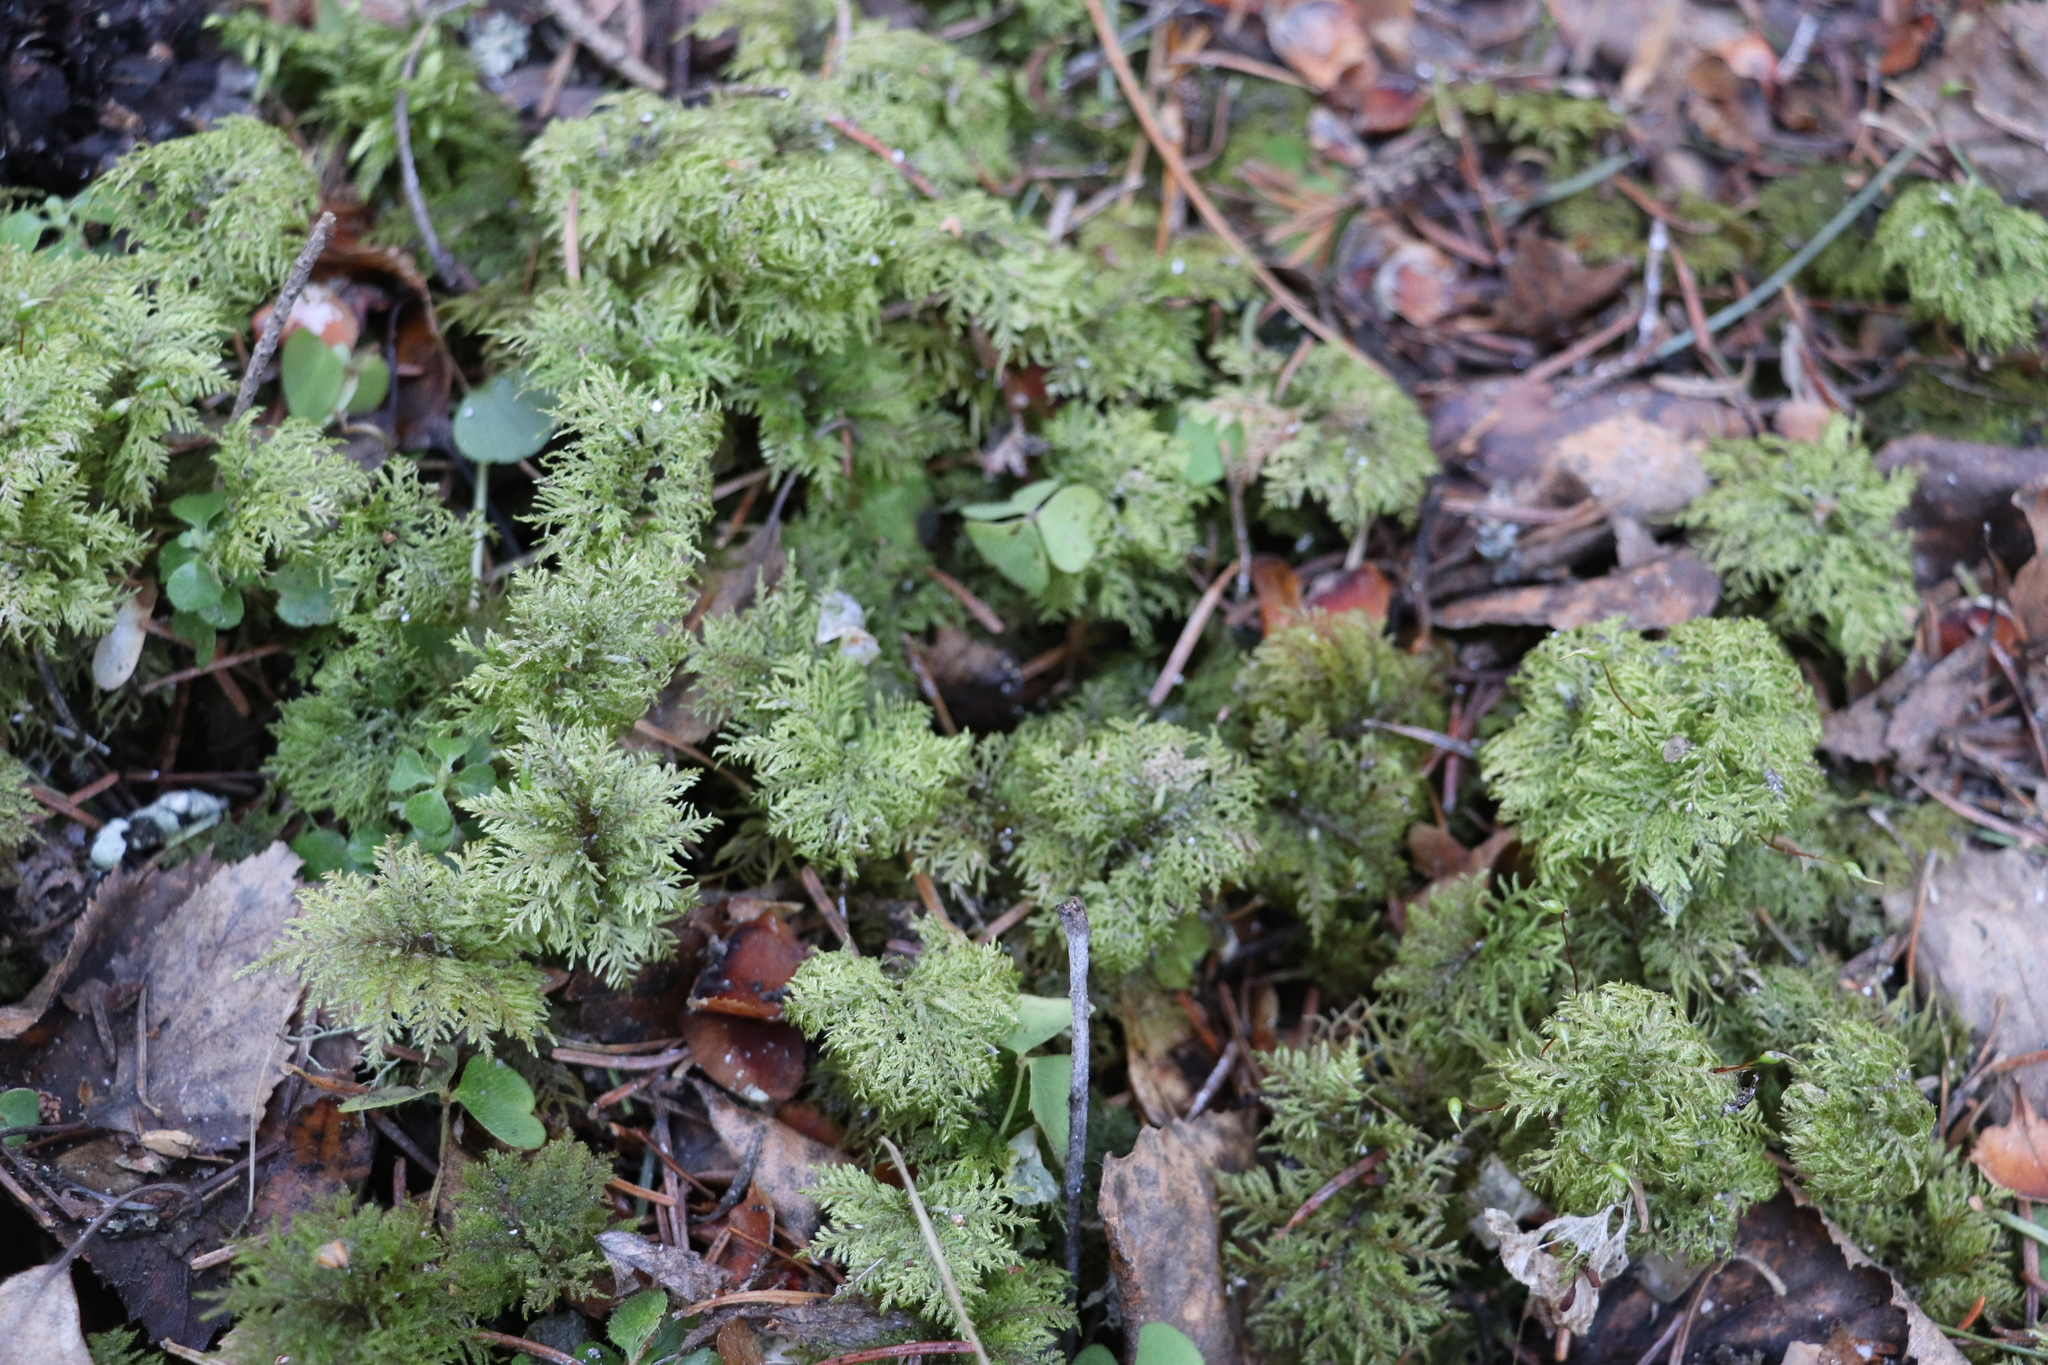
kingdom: Plantae
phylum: Bryophyta
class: Bryopsida
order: Hypnales
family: Hylocomiaceae
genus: Hylocomium
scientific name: Hylocomium splendens
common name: Stairstep moss
